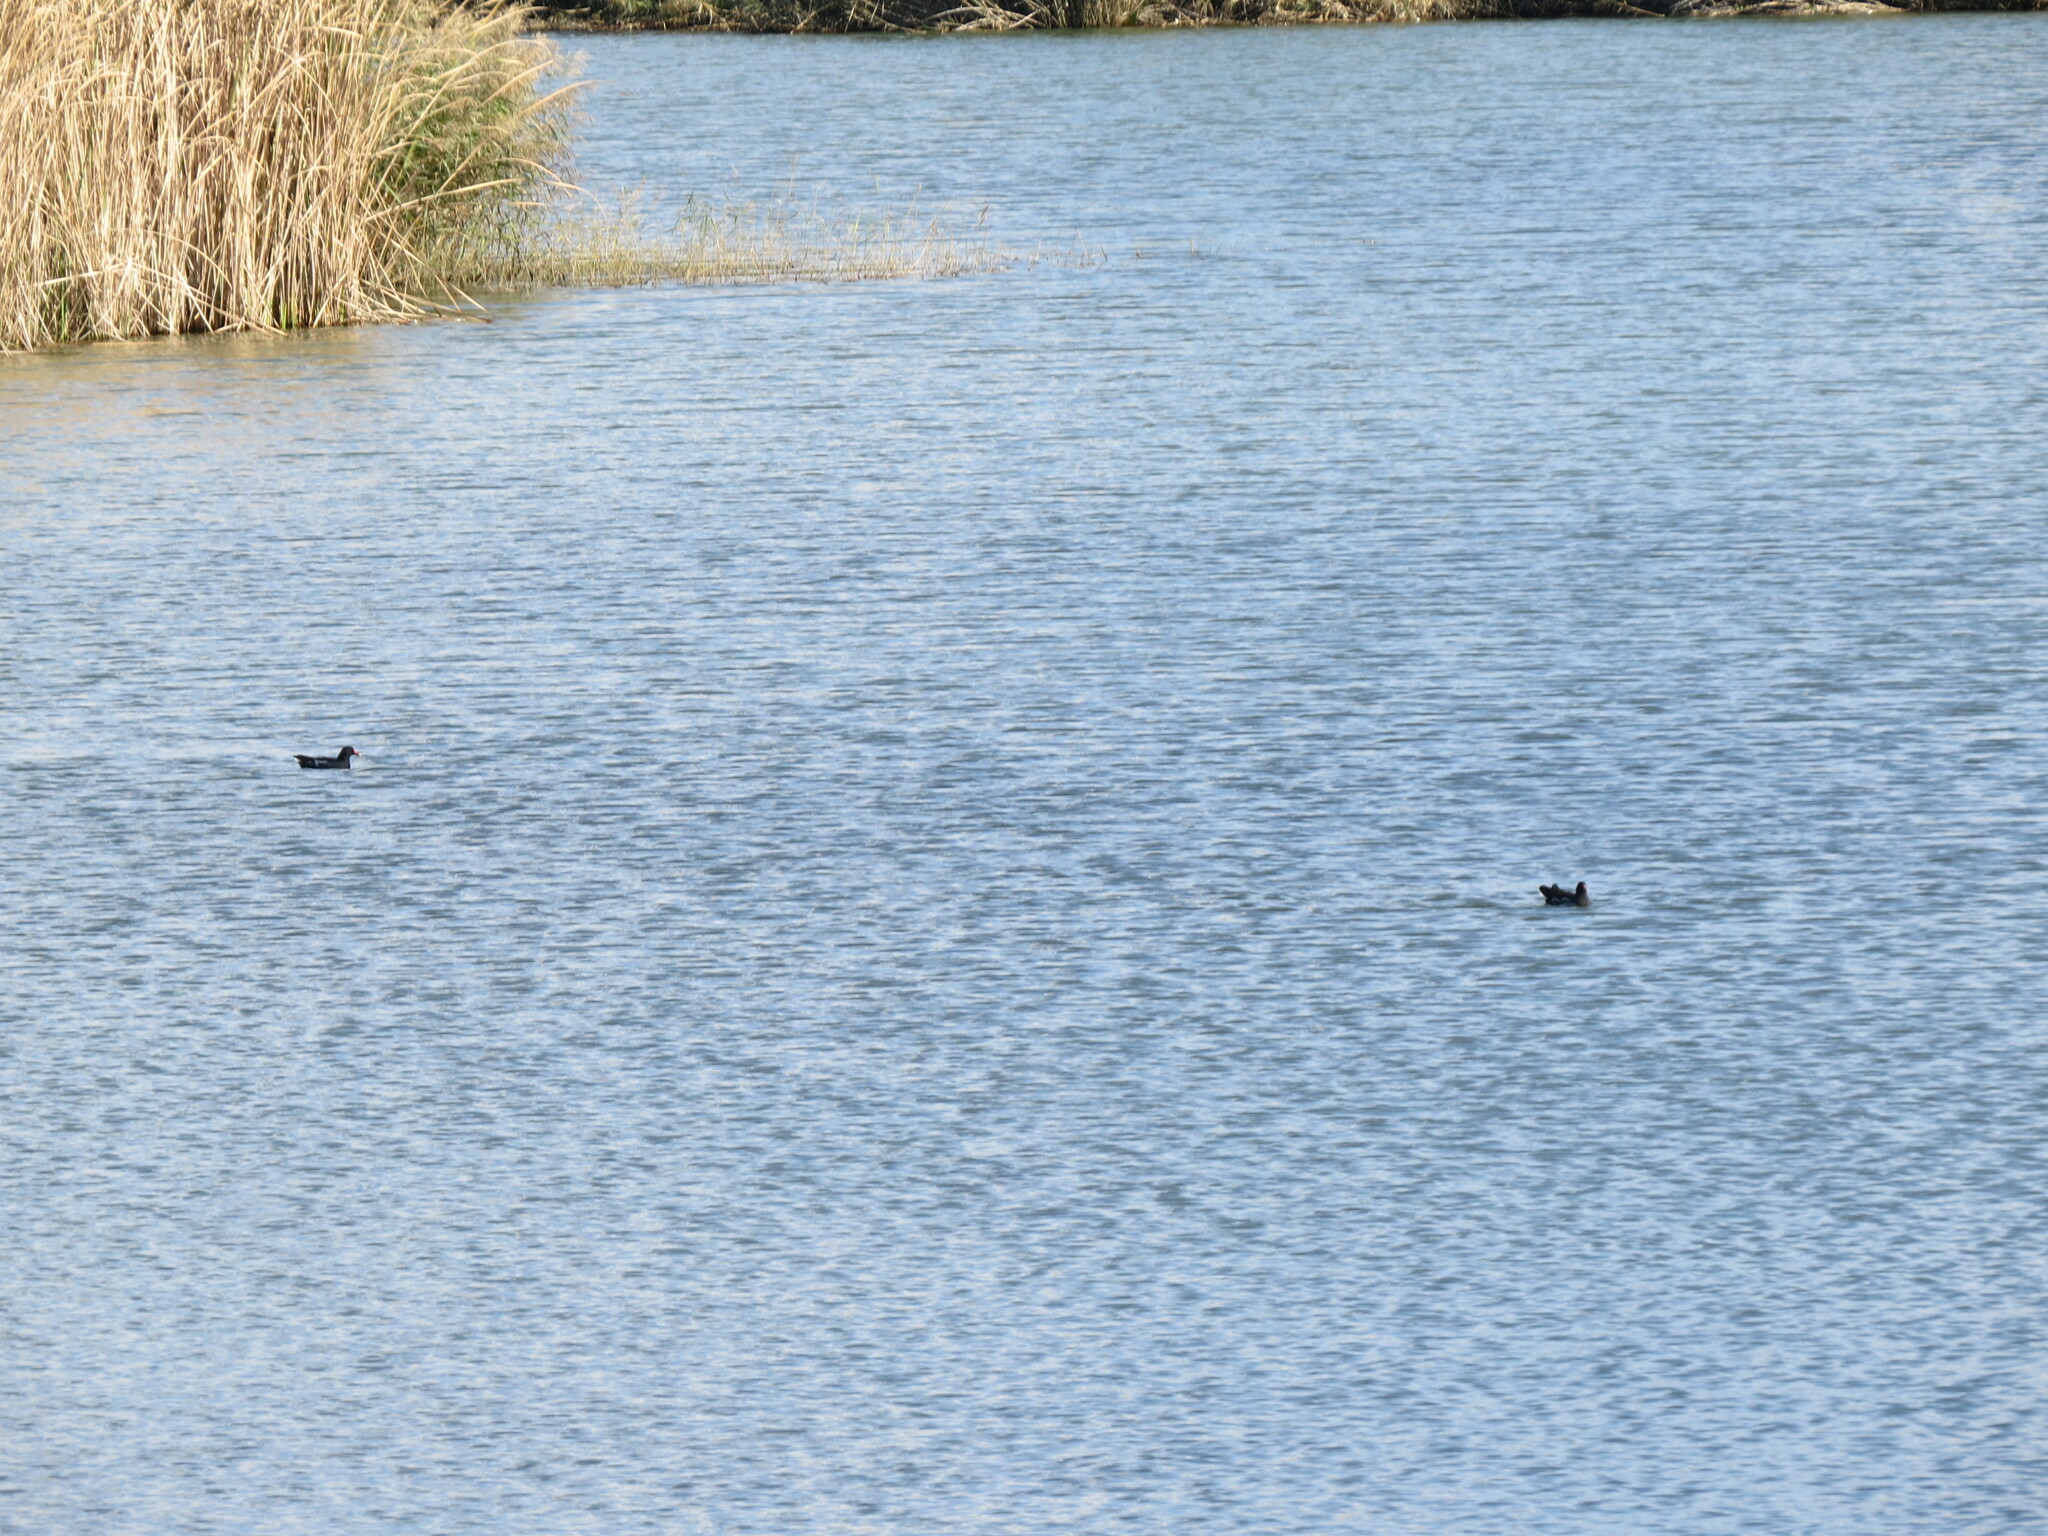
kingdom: Animalia
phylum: Chordata
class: Aves
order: Gruiformes
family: Rallidae
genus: Gallinula
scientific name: Gallinula chloropus
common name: Common moorhen
